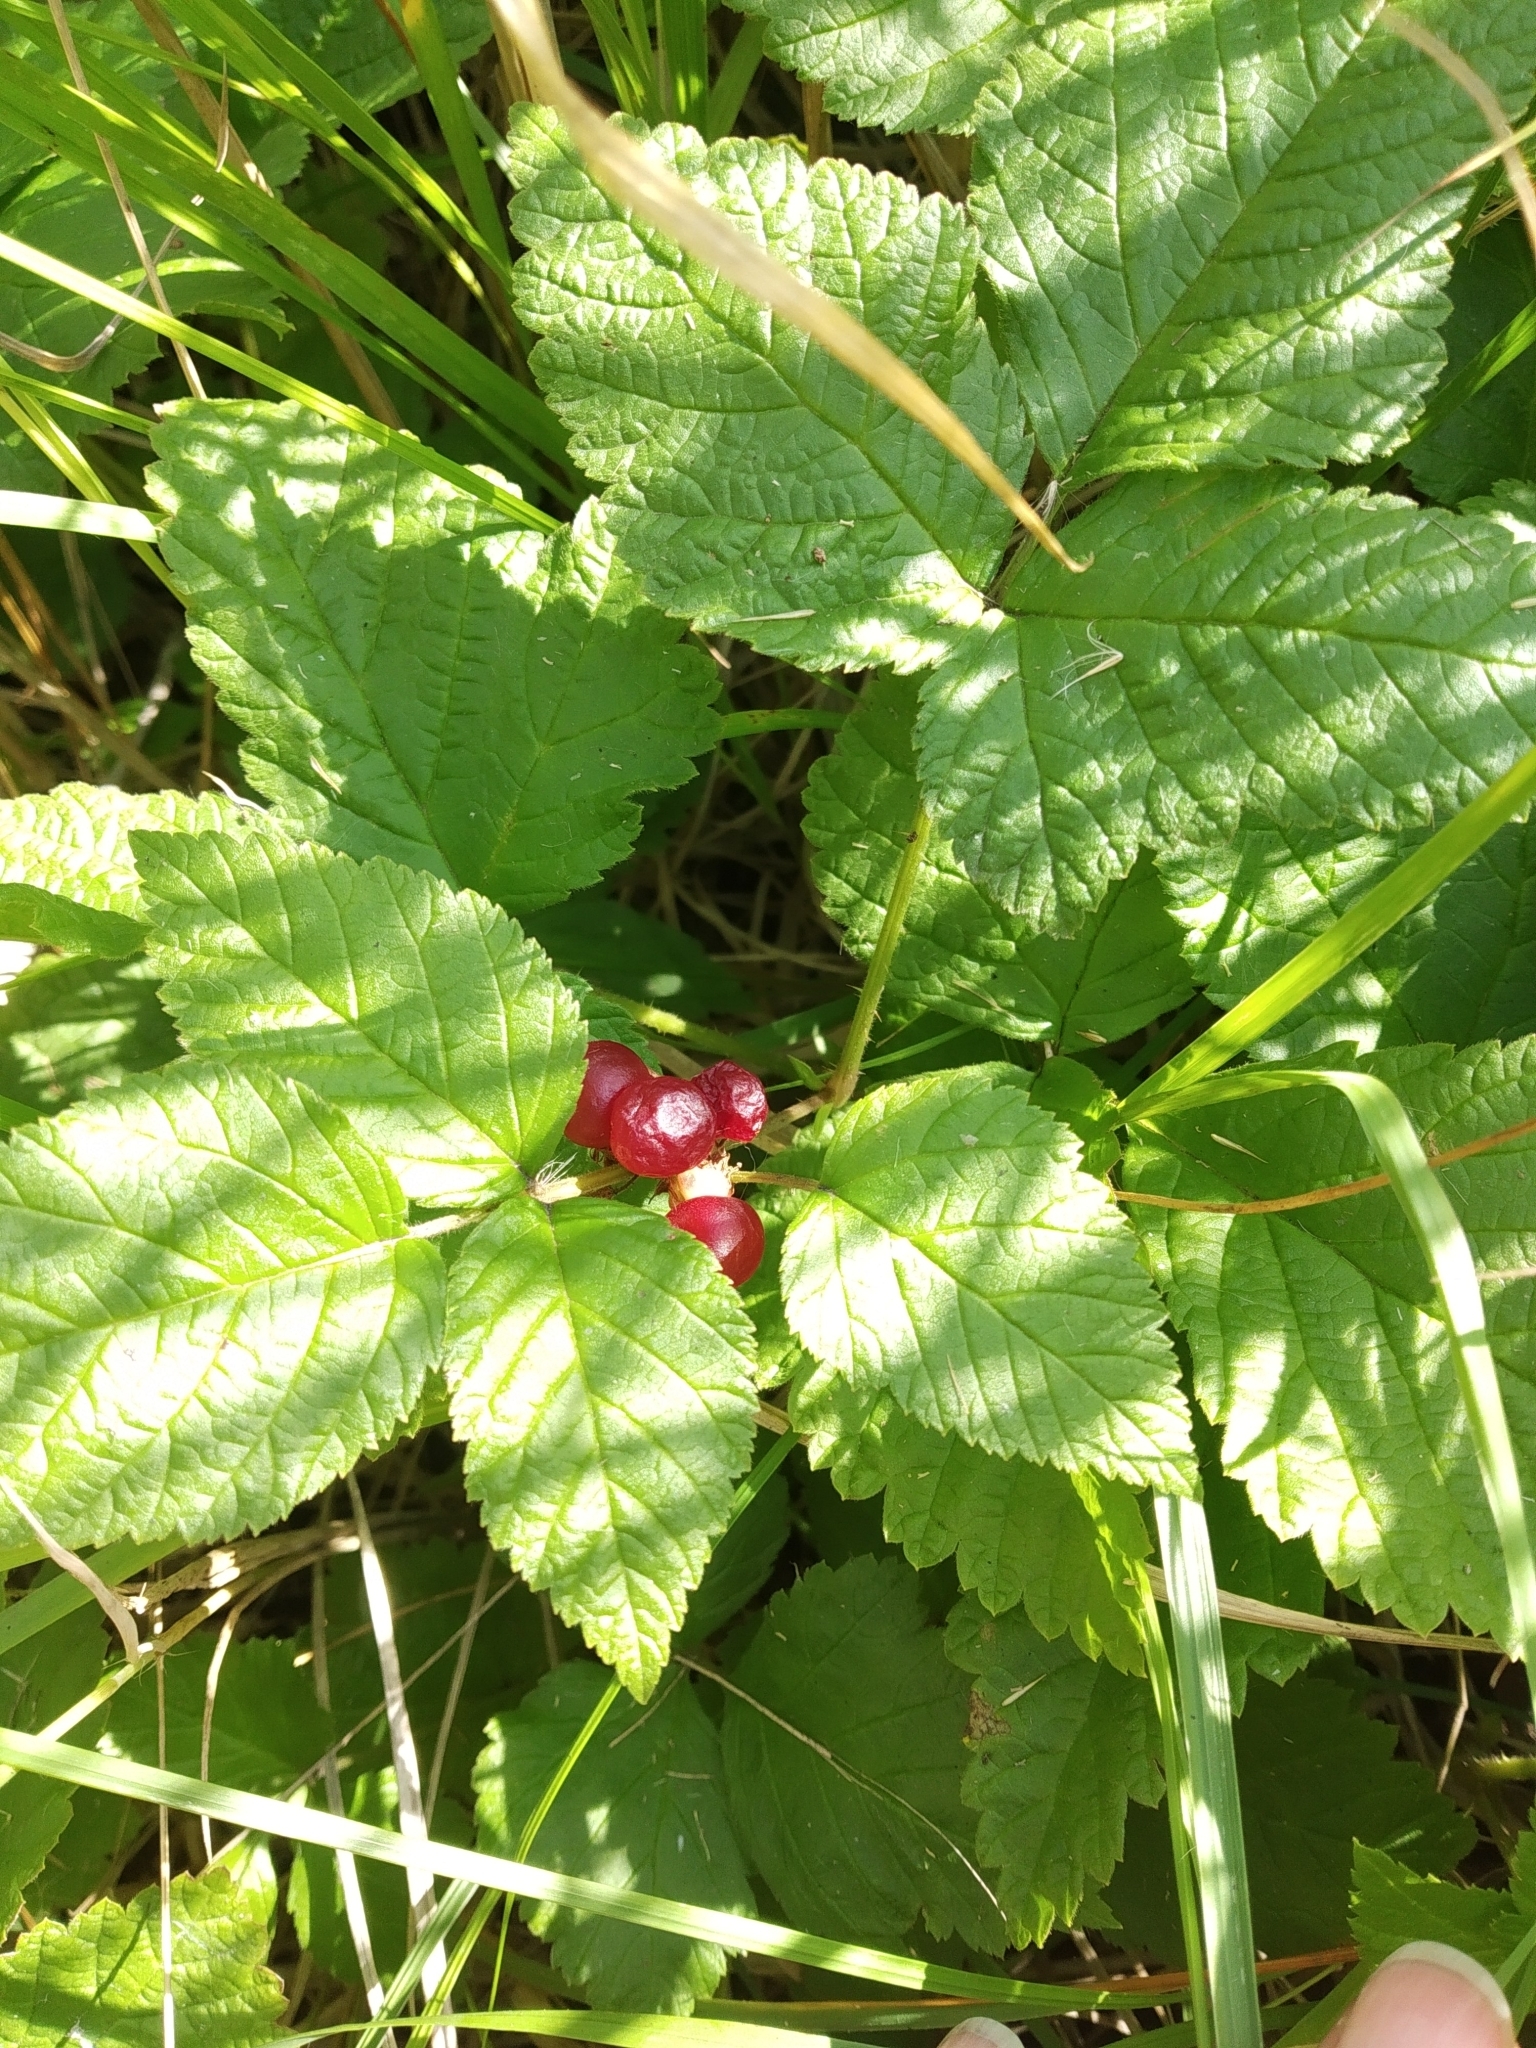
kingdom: Plantae
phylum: Tracheophyta
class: Magnoliopsida
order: Rosales
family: Rosaceae
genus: Rubus
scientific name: Rubus saxatilis
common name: Stone bramble
